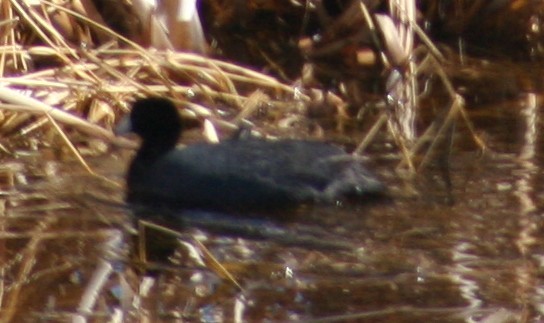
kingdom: Animalia
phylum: Chordata
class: Aves
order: Gruiformes
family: Rallidae
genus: Fulica
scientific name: Fulica americana
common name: American coot
